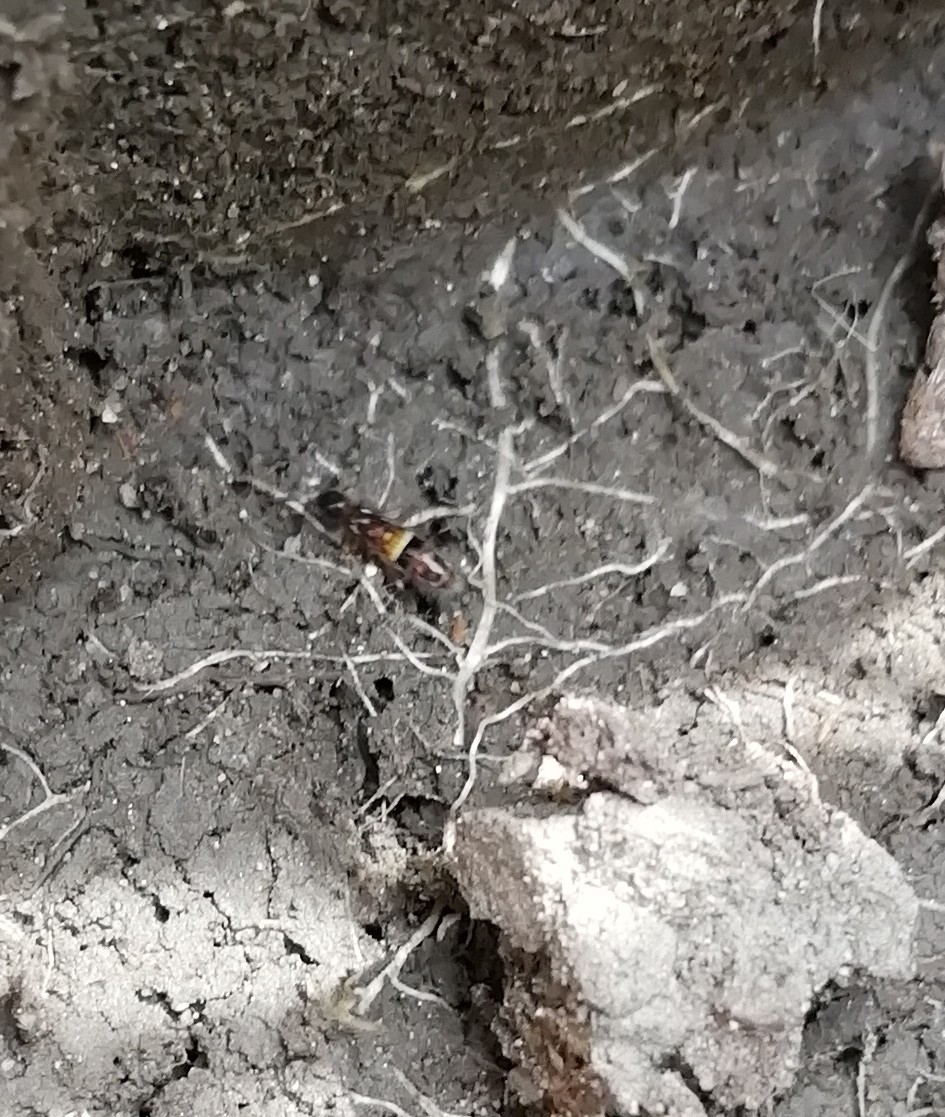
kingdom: Animalia
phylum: Arthropoda
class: Collembola
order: Entomobryomorpha
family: Orchesellidae
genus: Orchesella
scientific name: Orchesella cincta
